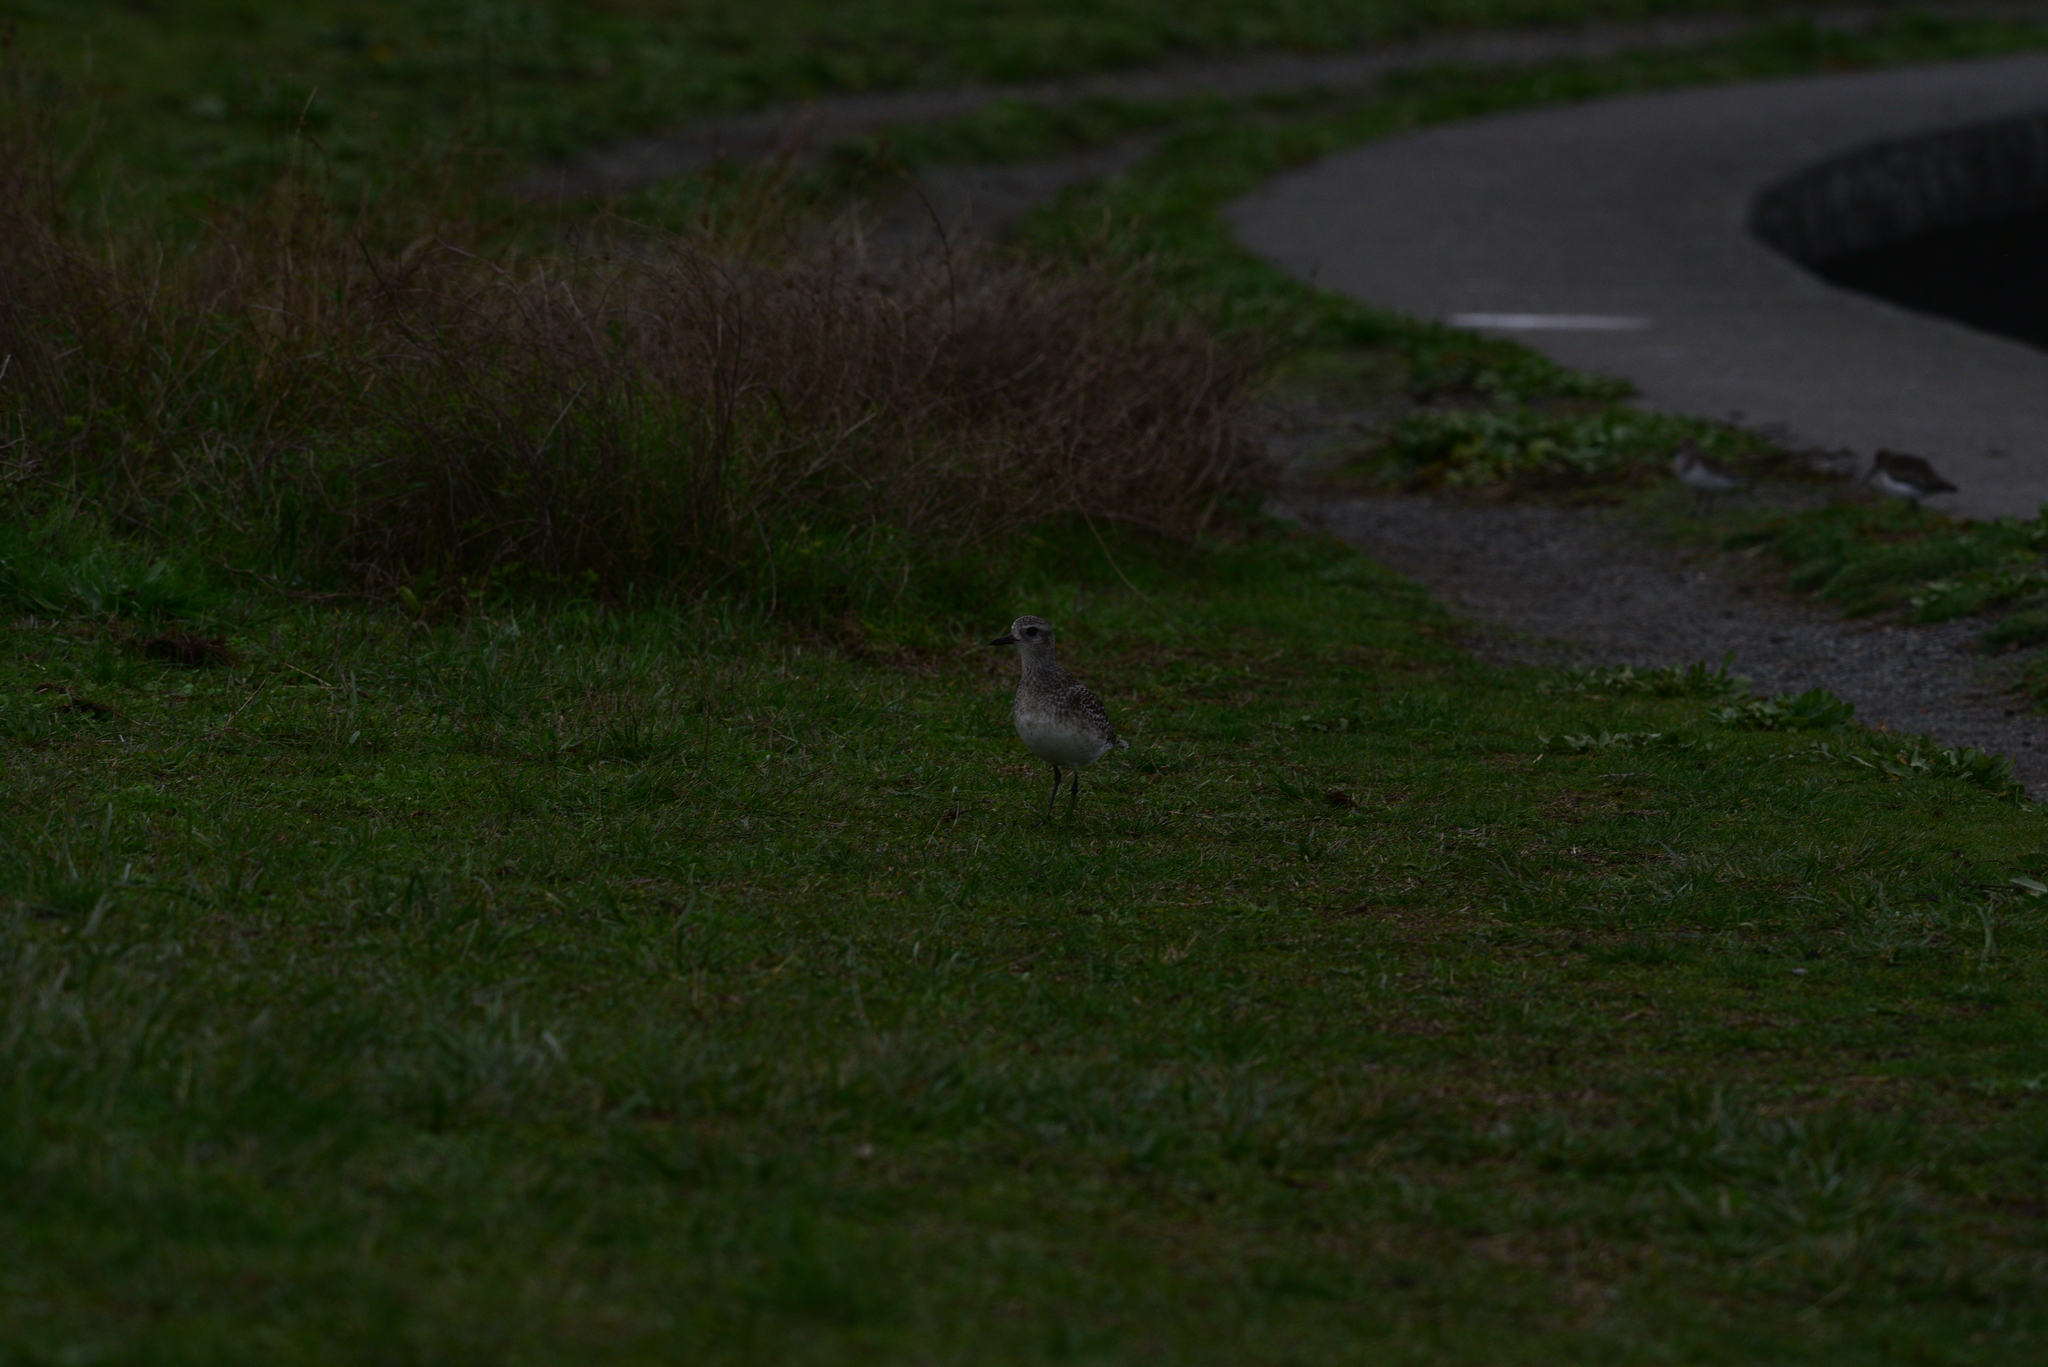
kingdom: Animalia
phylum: Chordata
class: Aves
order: Charadriiformes
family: Charadriidae
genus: Pluvialis
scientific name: Pluvialis squatarola
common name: Grey plover
